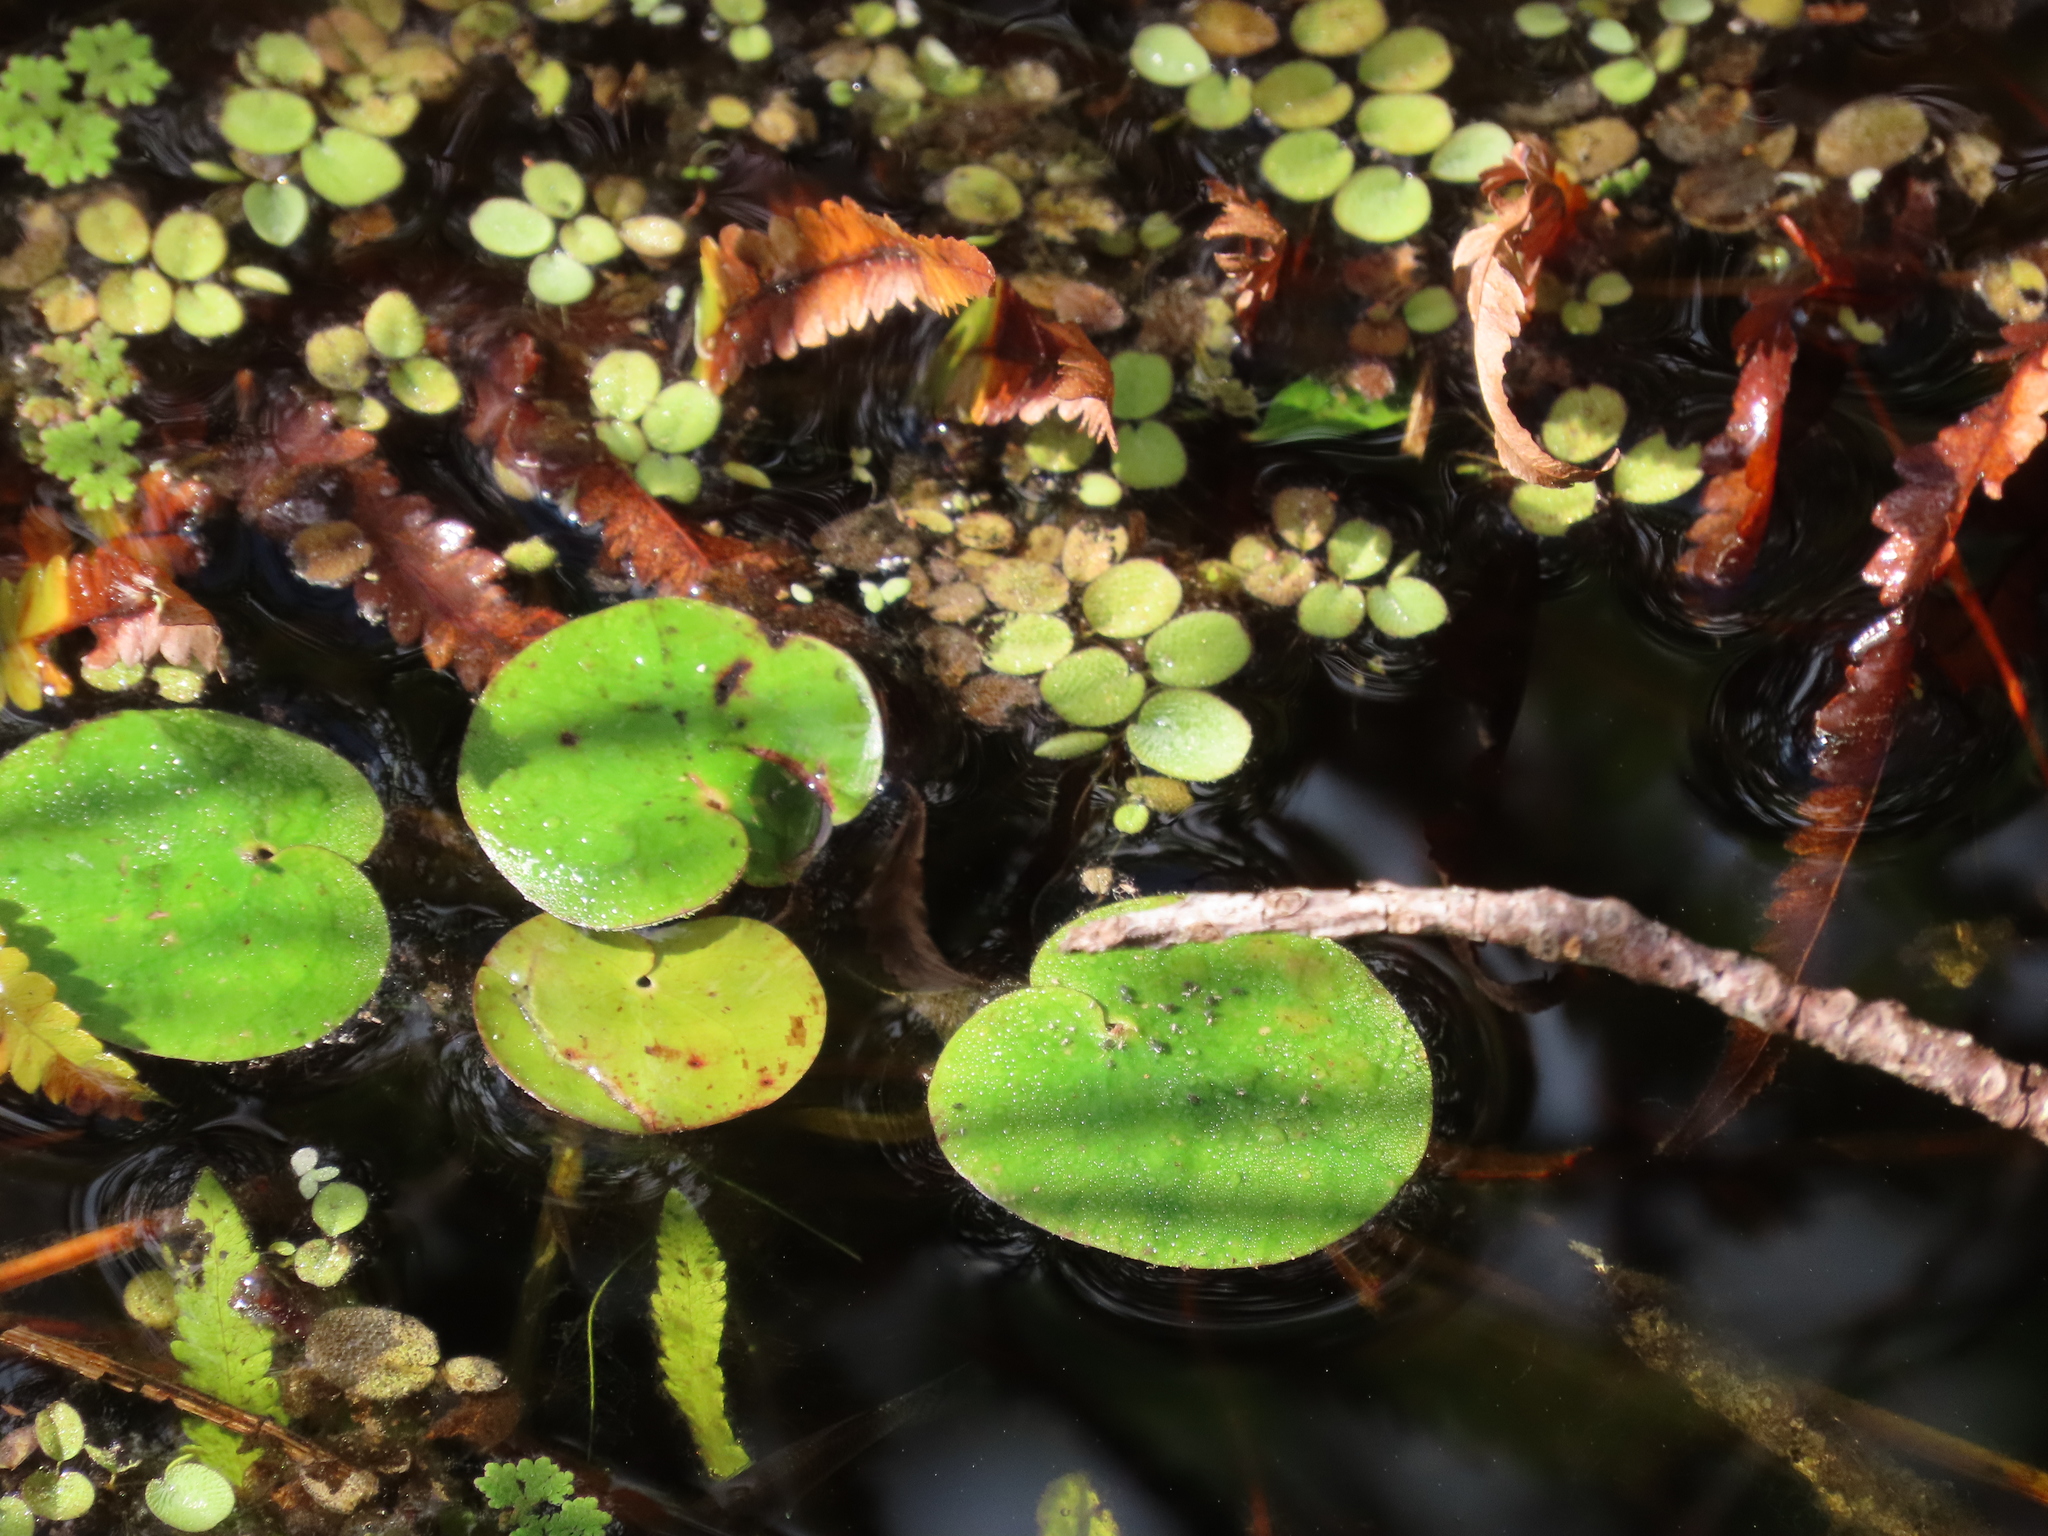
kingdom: Plantae
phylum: Tracheophyta
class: Liliopsida
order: Alismatales
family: Hydrocharitaceae
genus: Hydrocharis
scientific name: Hydrocharis spongia
